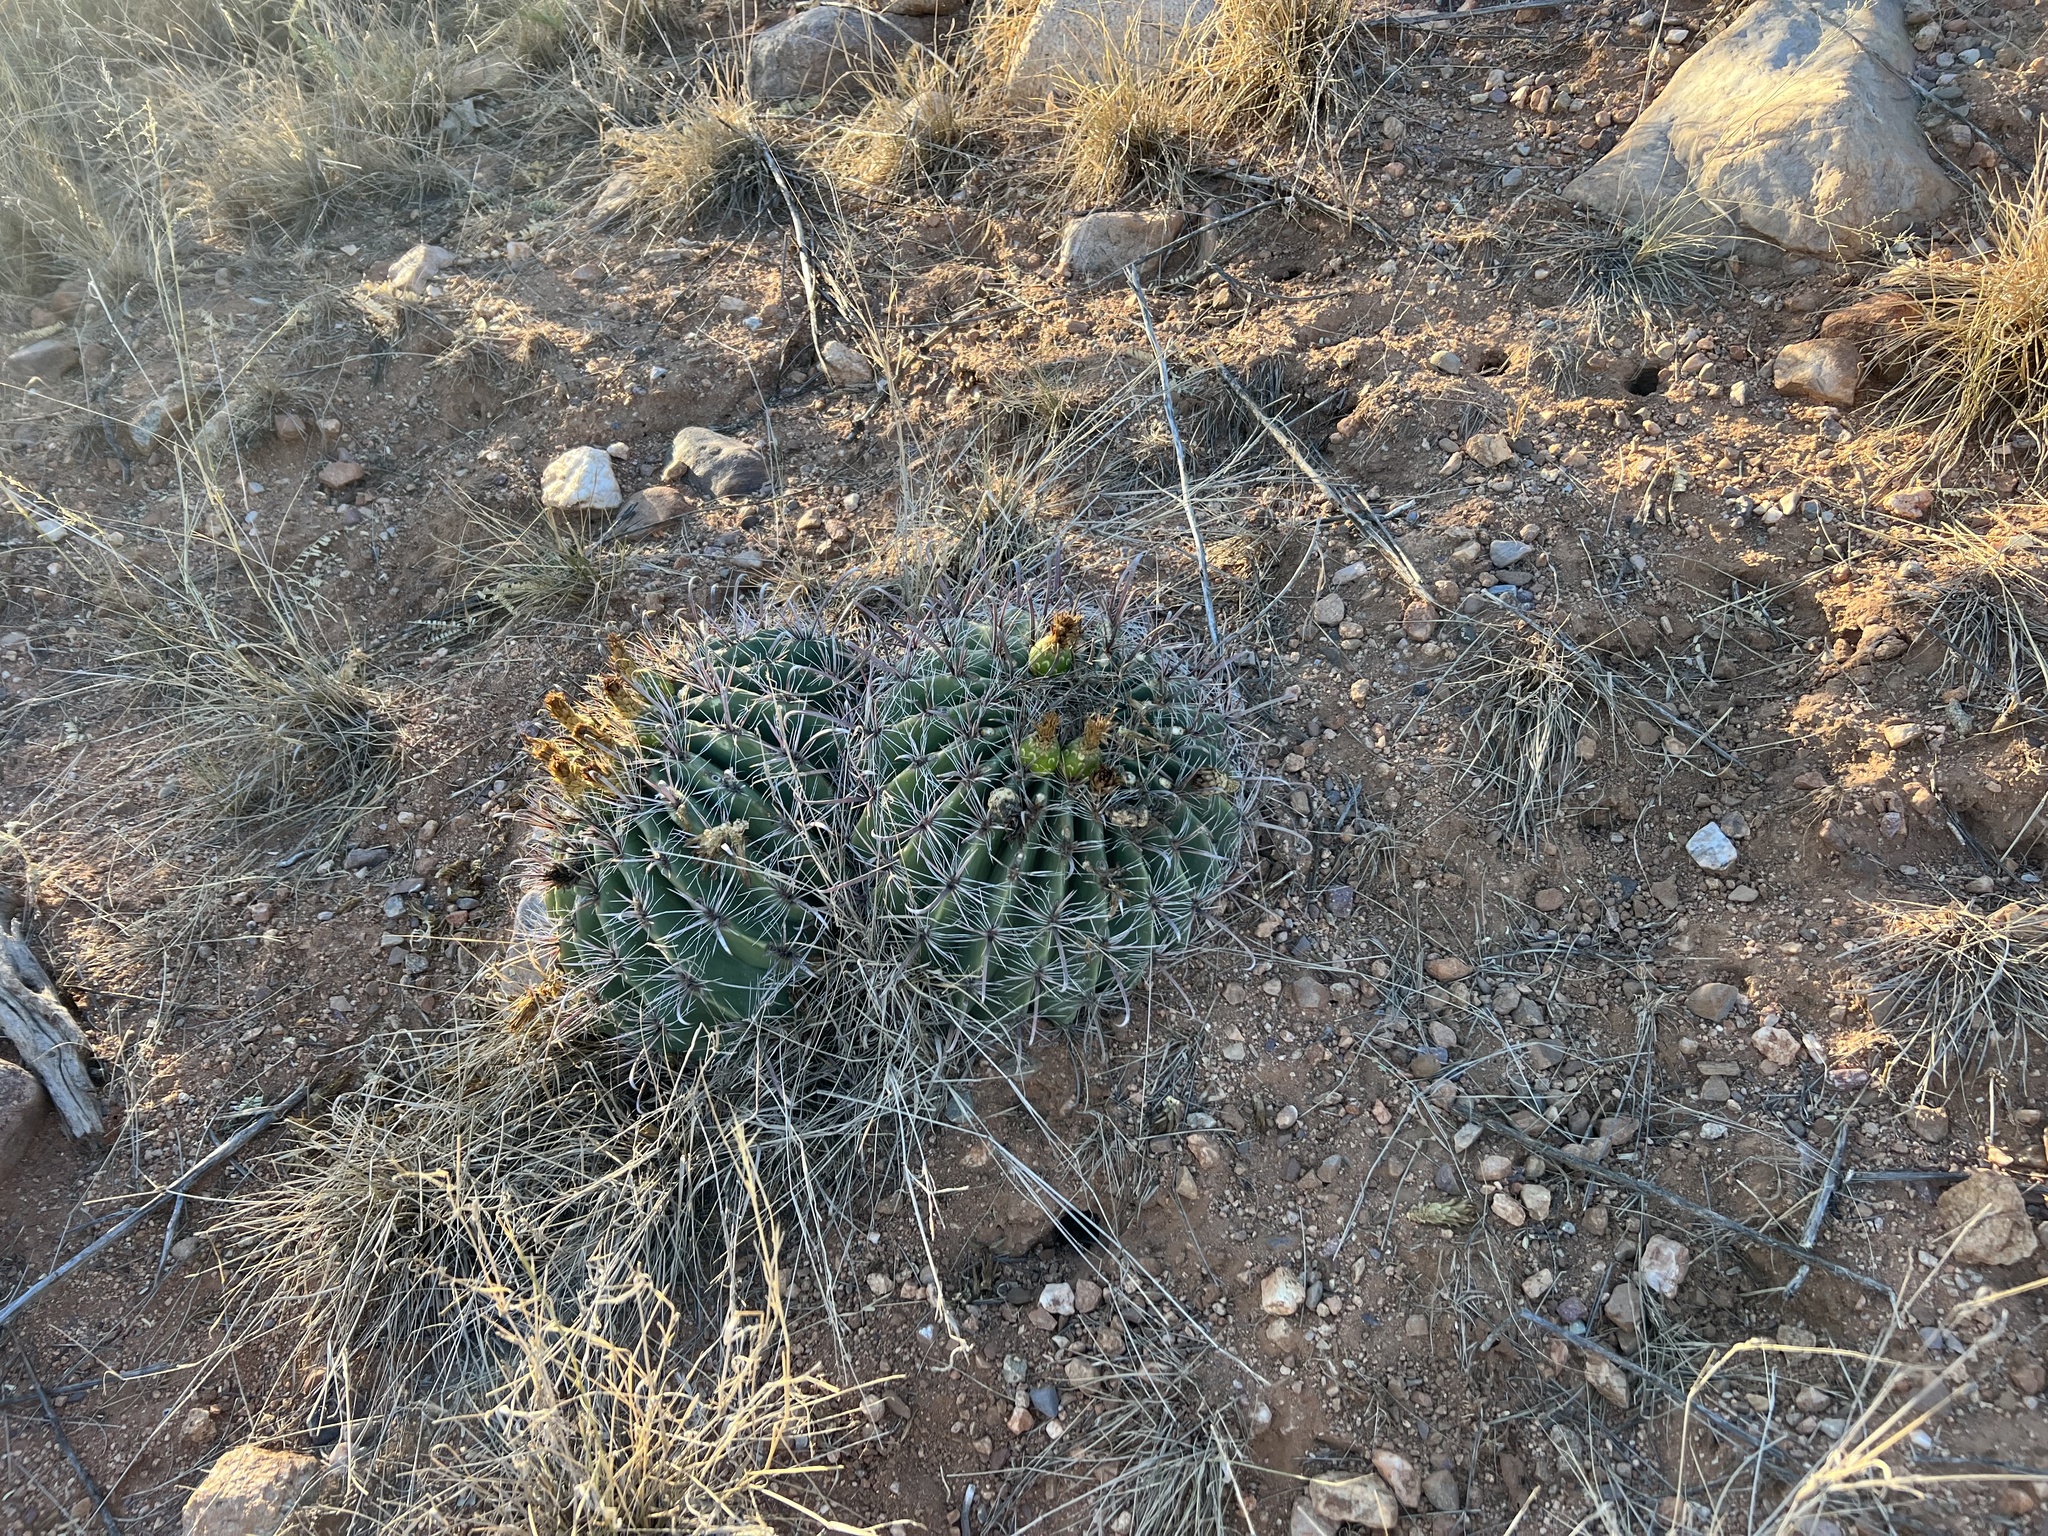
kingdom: Plantae
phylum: Tracheophyta
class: Magnoliopsida
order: Caryophyllales
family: Cactaceae
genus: Ferocactus
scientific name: Ferocactus wislizeni
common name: Candy barrel cactus
